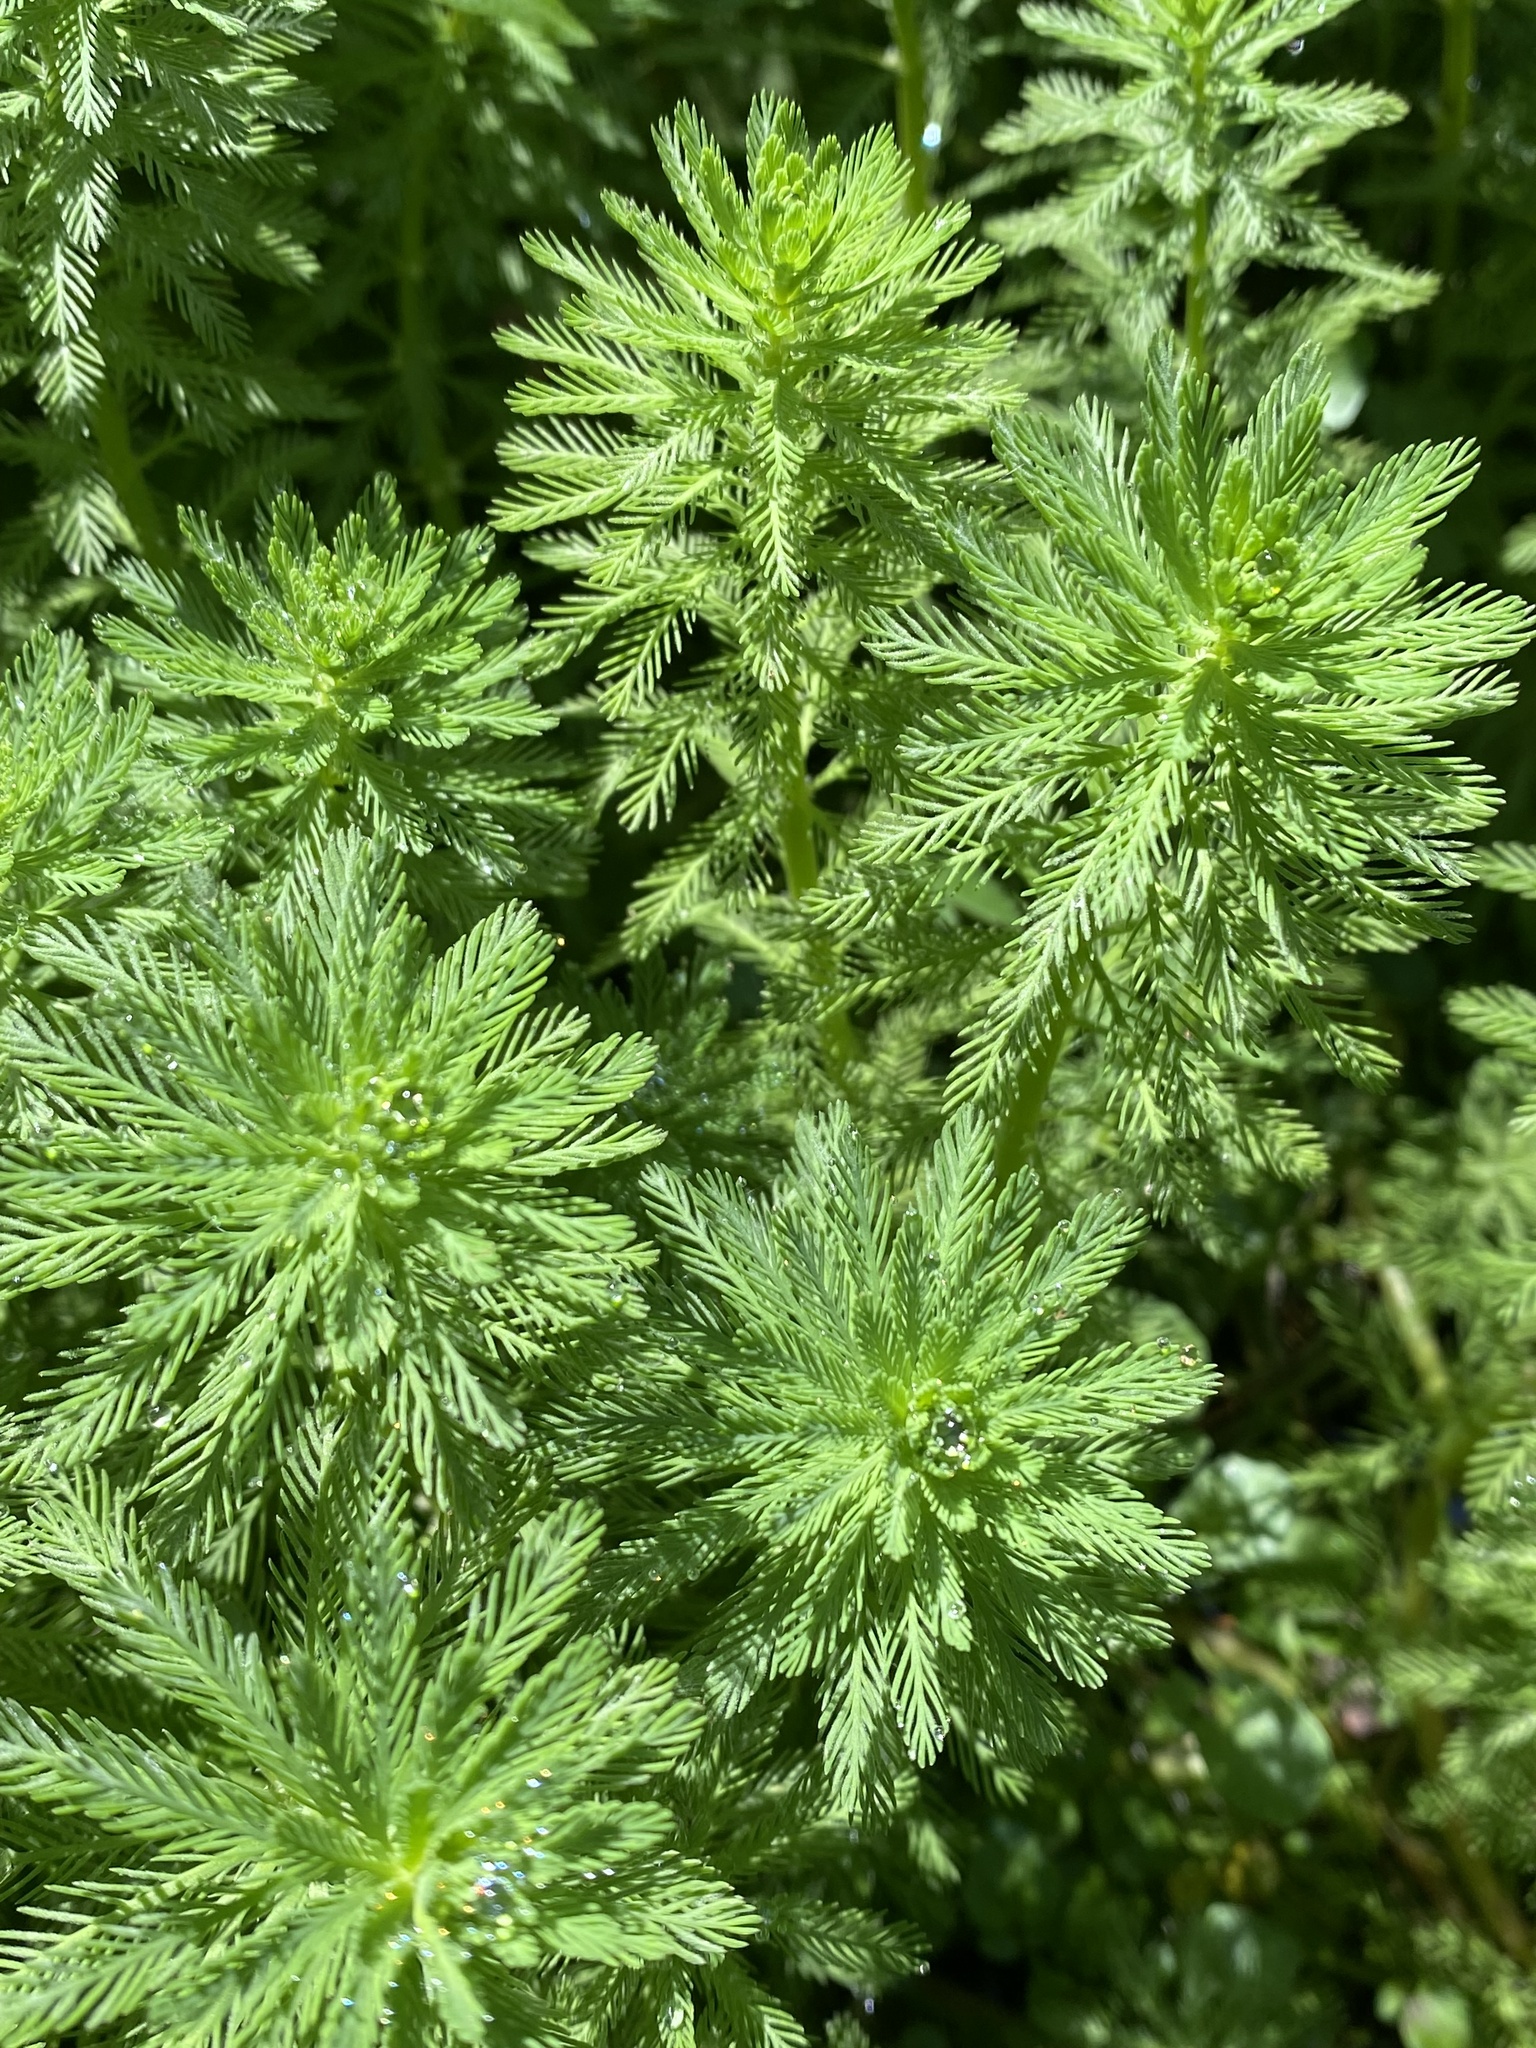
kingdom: Plantae
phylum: Tracheophyta
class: Magnoliopsida
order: Saxifragales
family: Haloragaceae
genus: Myriophyllum
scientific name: Myriophyllum aquaticum
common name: Parrot's feather
